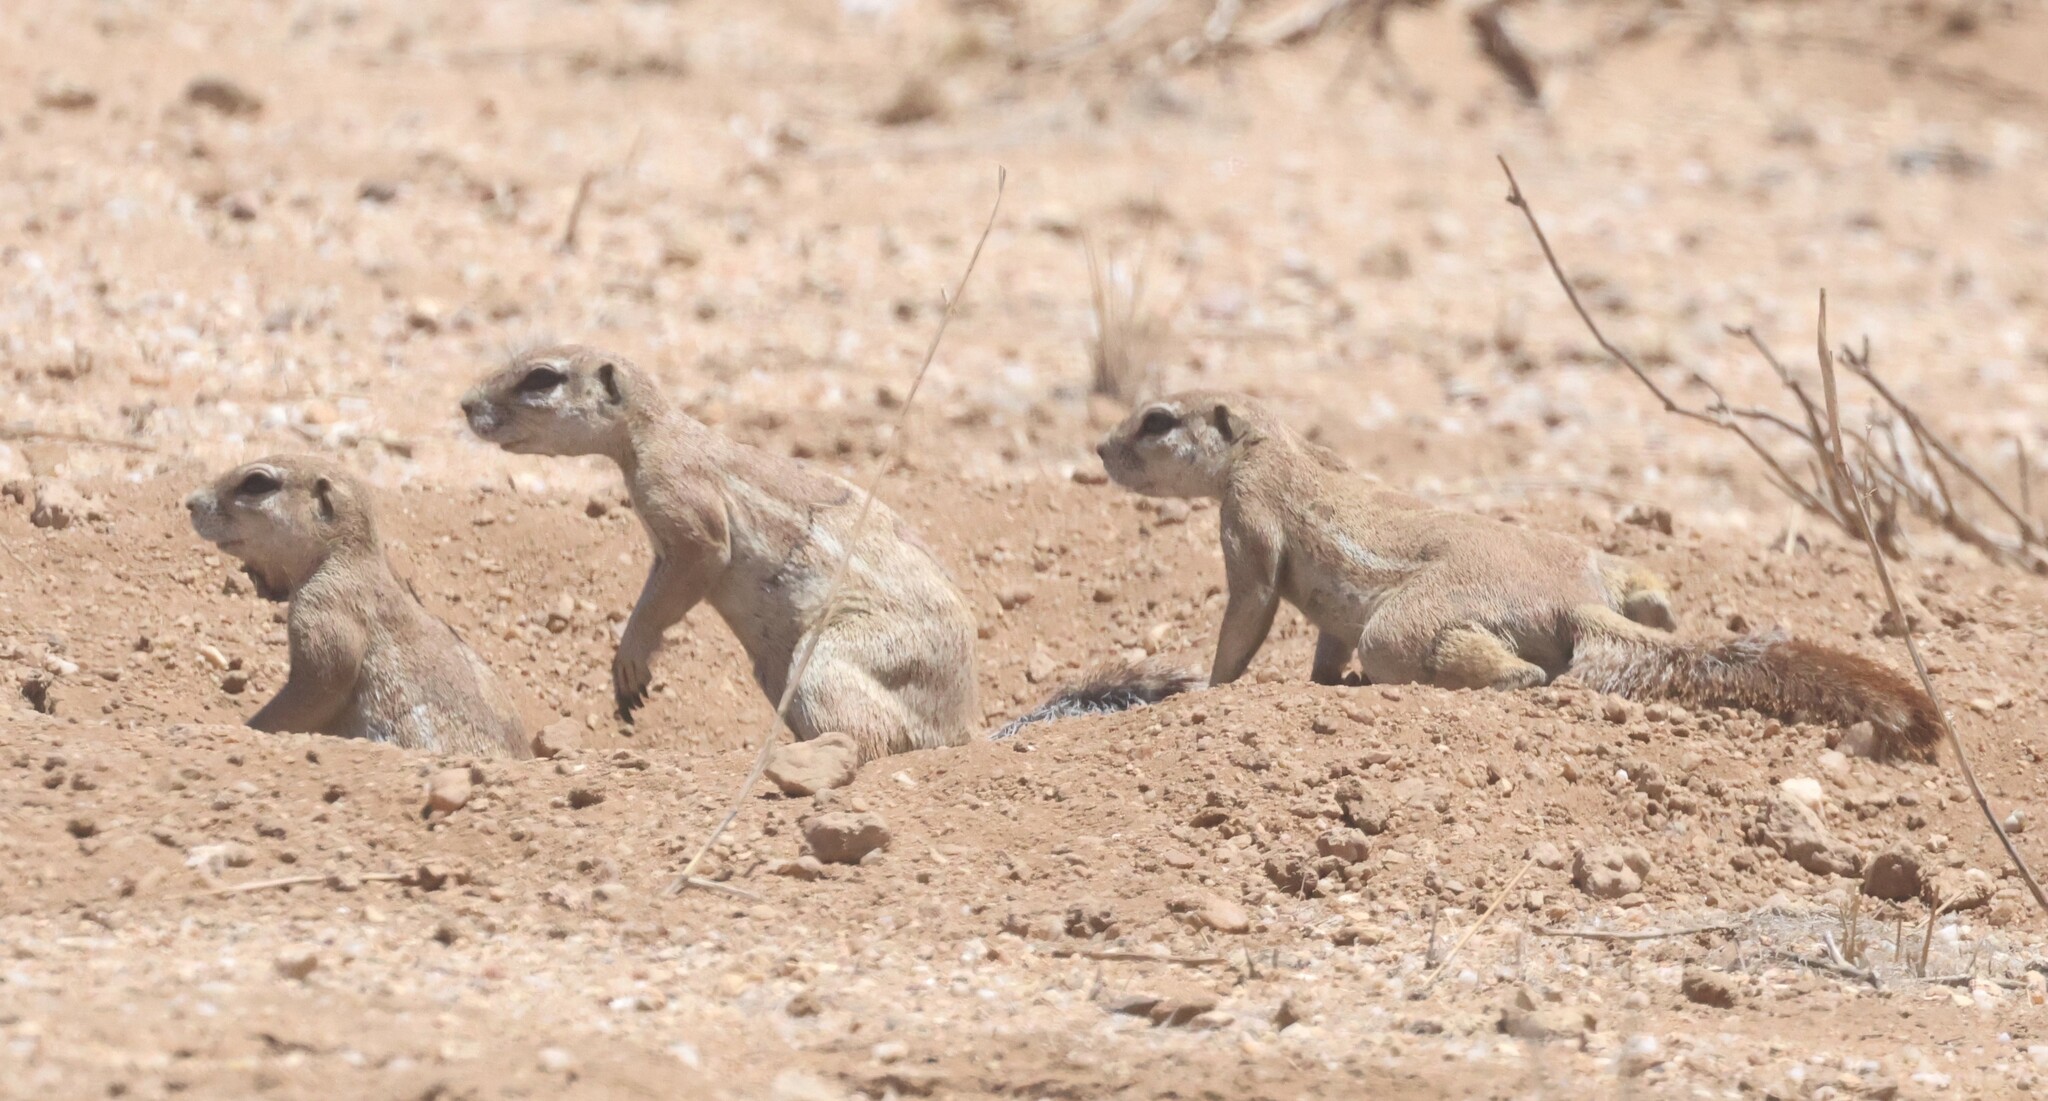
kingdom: Animalia
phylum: Chordata
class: Mammalia
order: Rodentia
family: Sciuridae
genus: Xerus
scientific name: Xerus inauris
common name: South african ground squirrel
